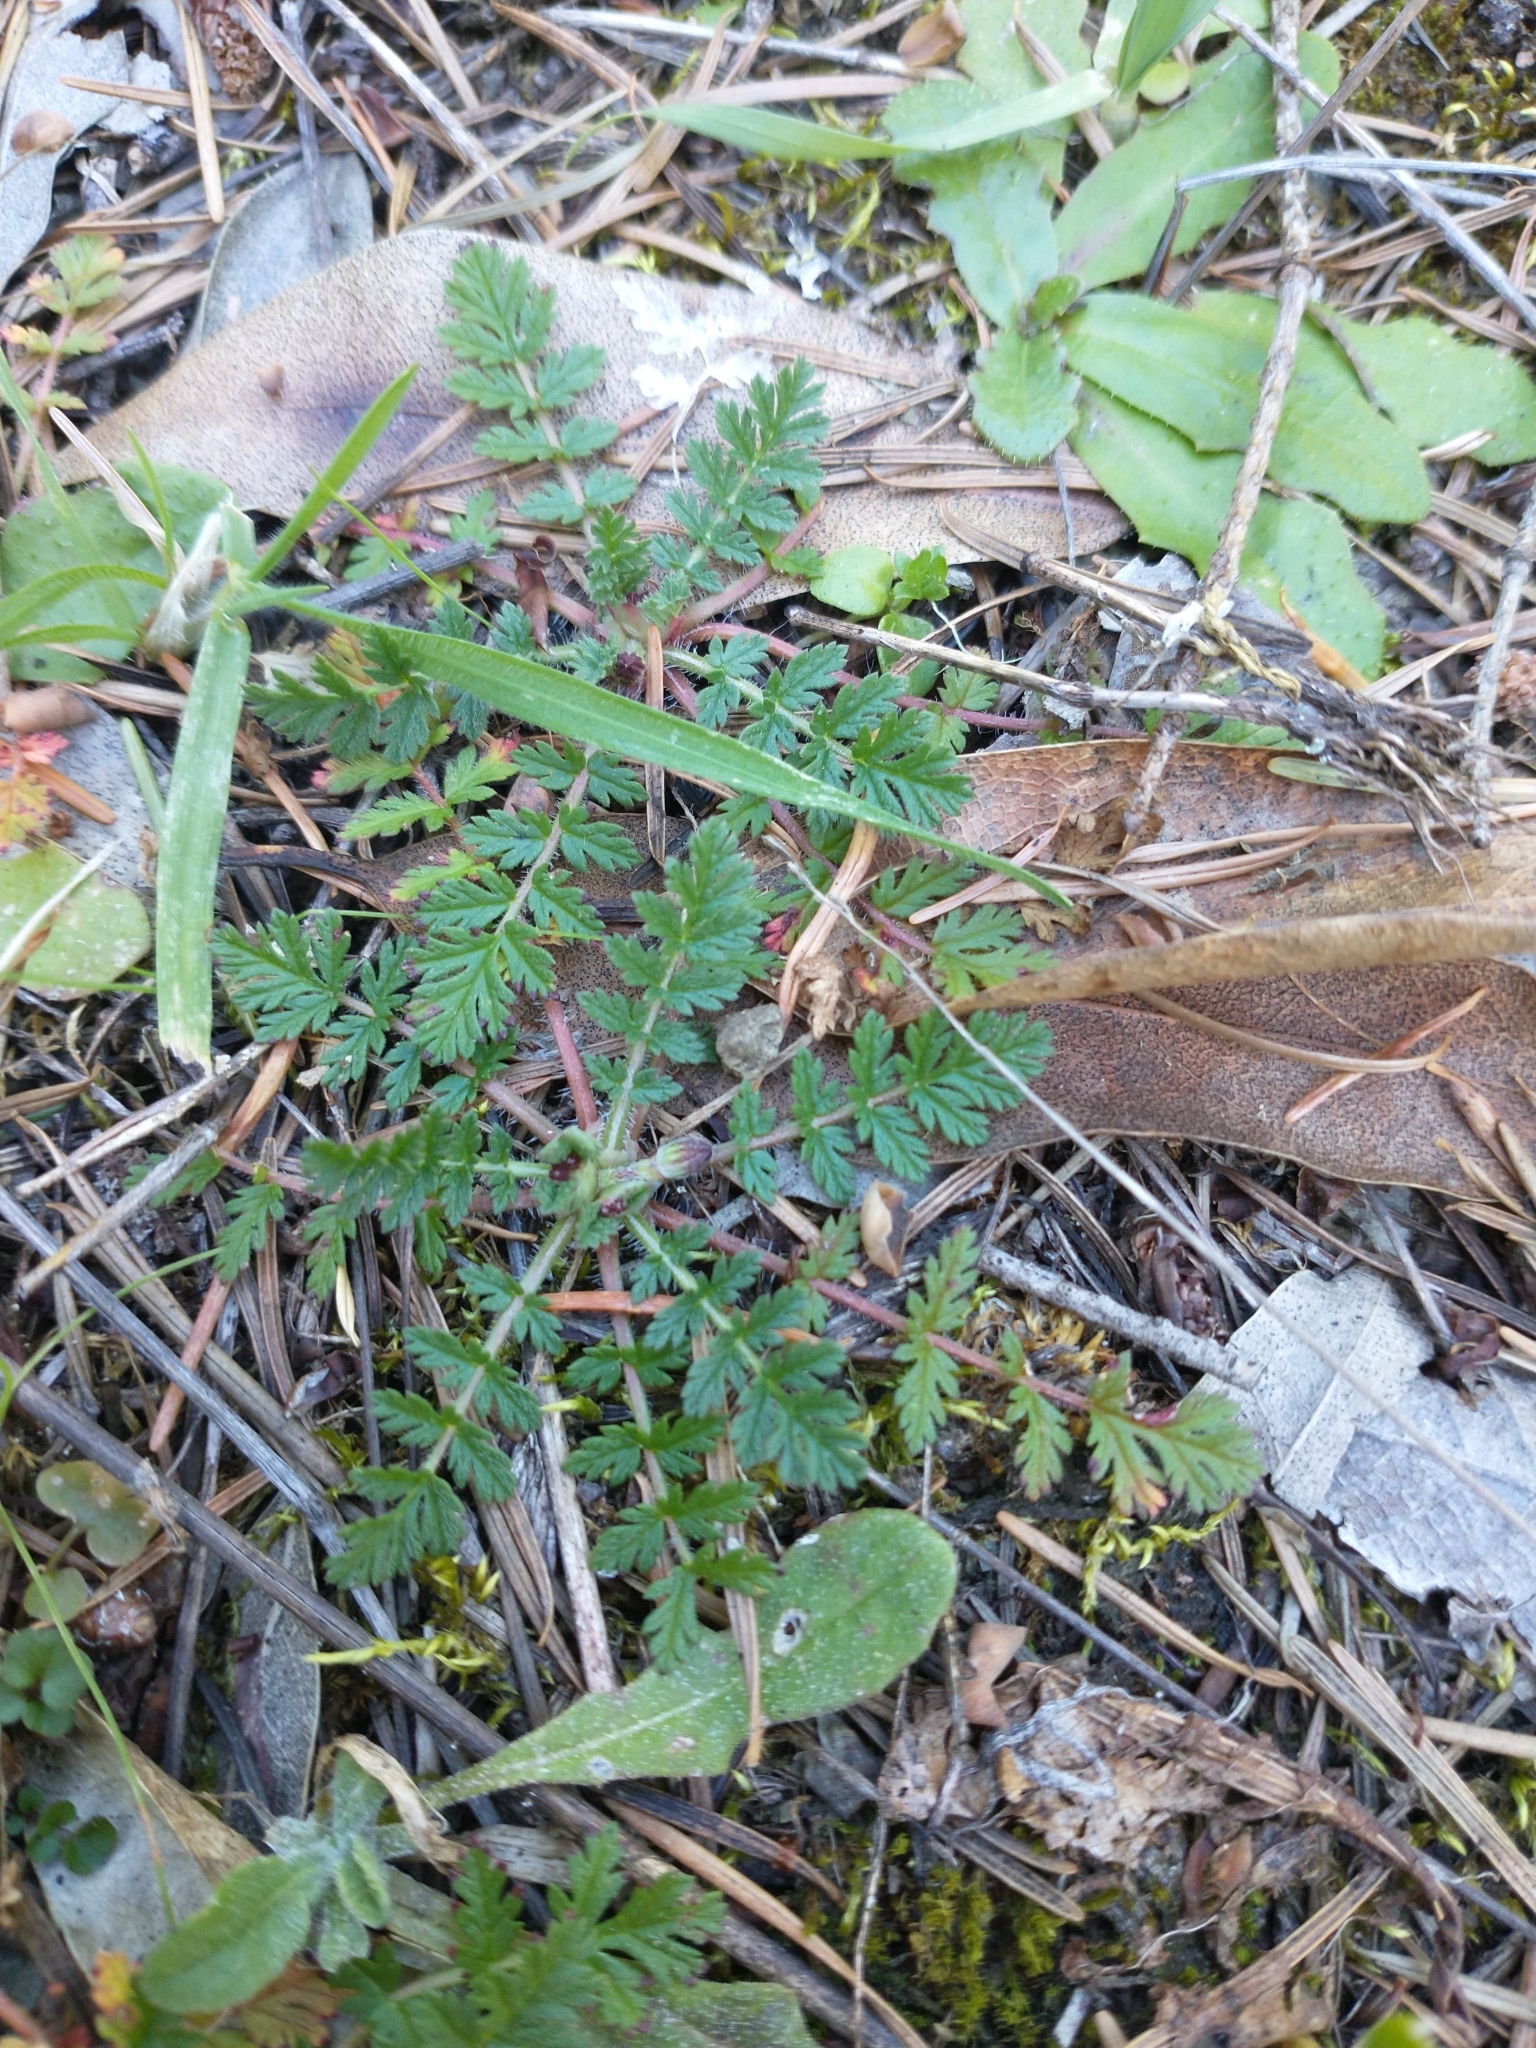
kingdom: Plantae
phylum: Tracheophyta
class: Magnoliopsida
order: Geraniales
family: Geraniaceae
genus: Erodium
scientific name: Erodium cicutarium
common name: Common stork's-bill
